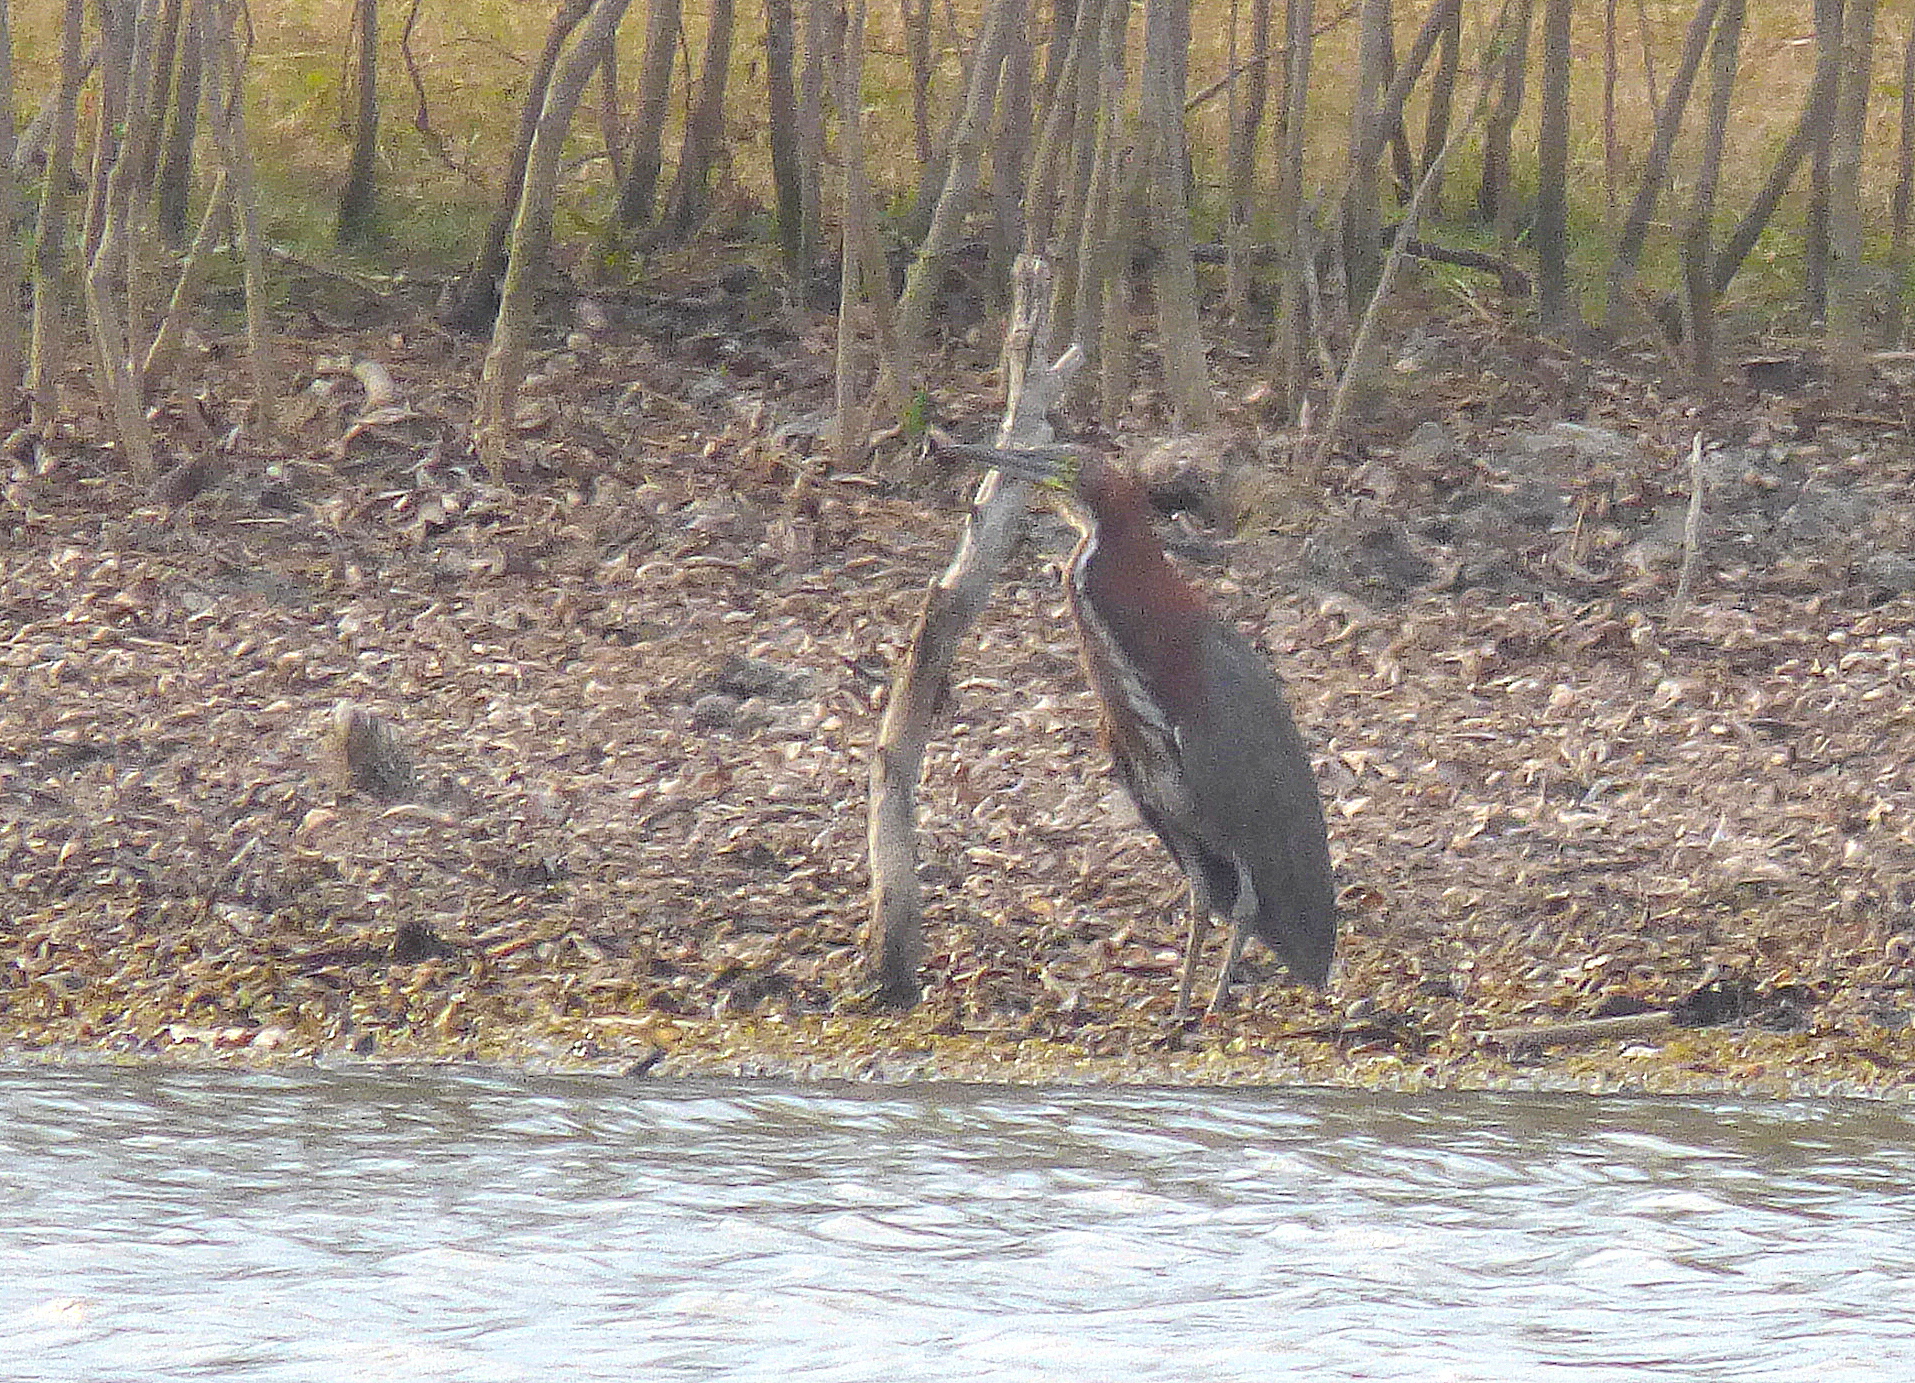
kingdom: Animalia
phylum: Chordata
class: Aves
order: Pelecaniformes
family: Ardeidae
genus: Tigrisoma
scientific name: Tigrisoma lineatum
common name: Rufescent tiger-heron
